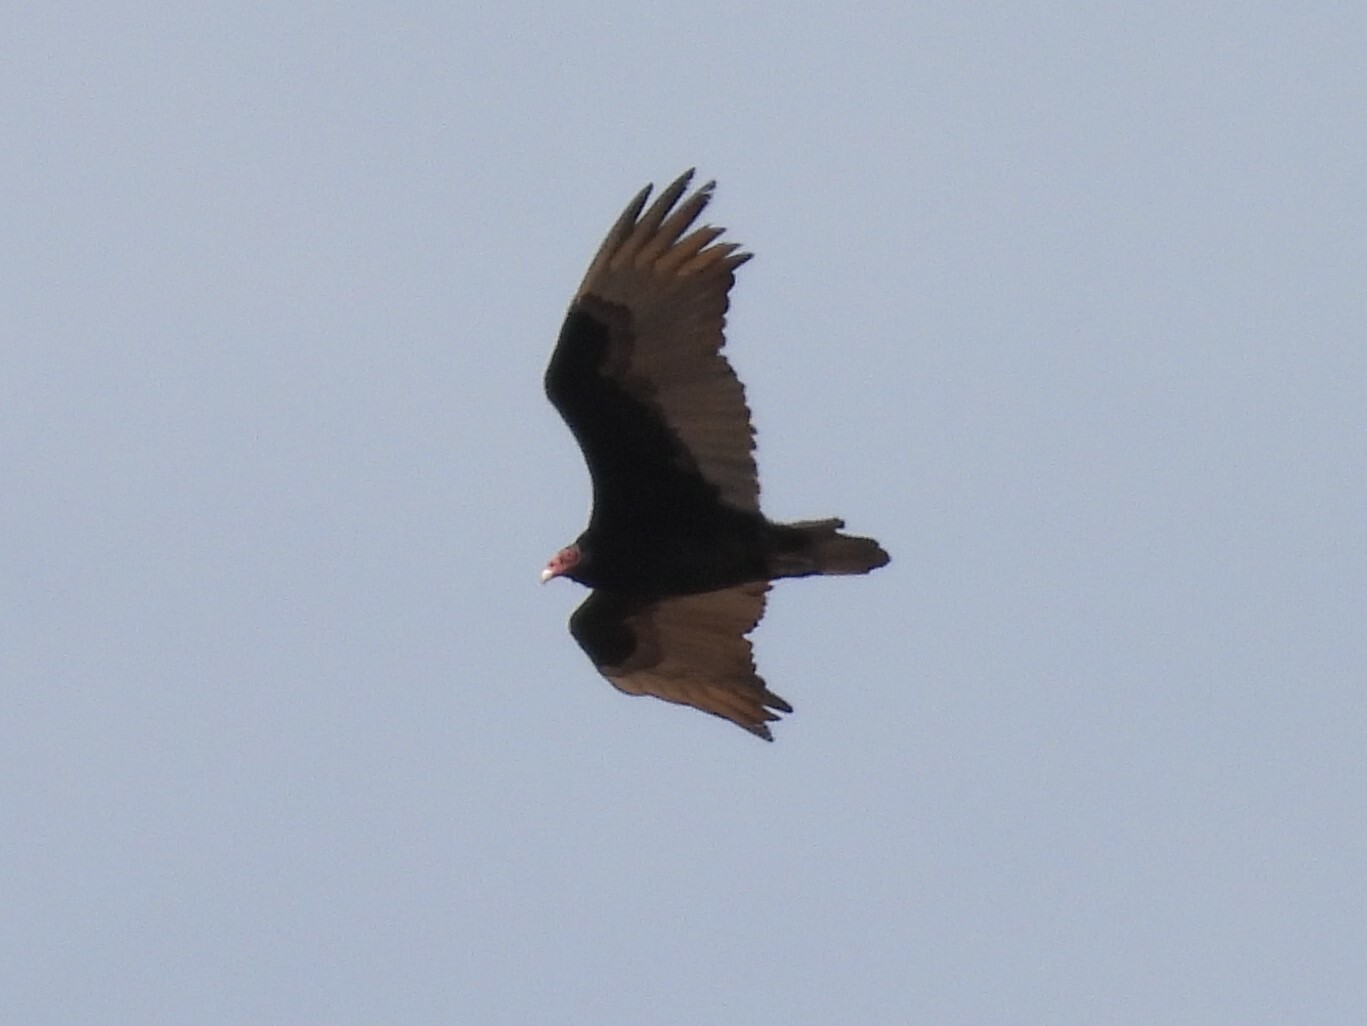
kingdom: Animalia
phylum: Chordata
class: Aves
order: Accipitriformes
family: Cathartidae
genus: Cathartes
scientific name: Cathartes aura
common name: Turkey vulture
